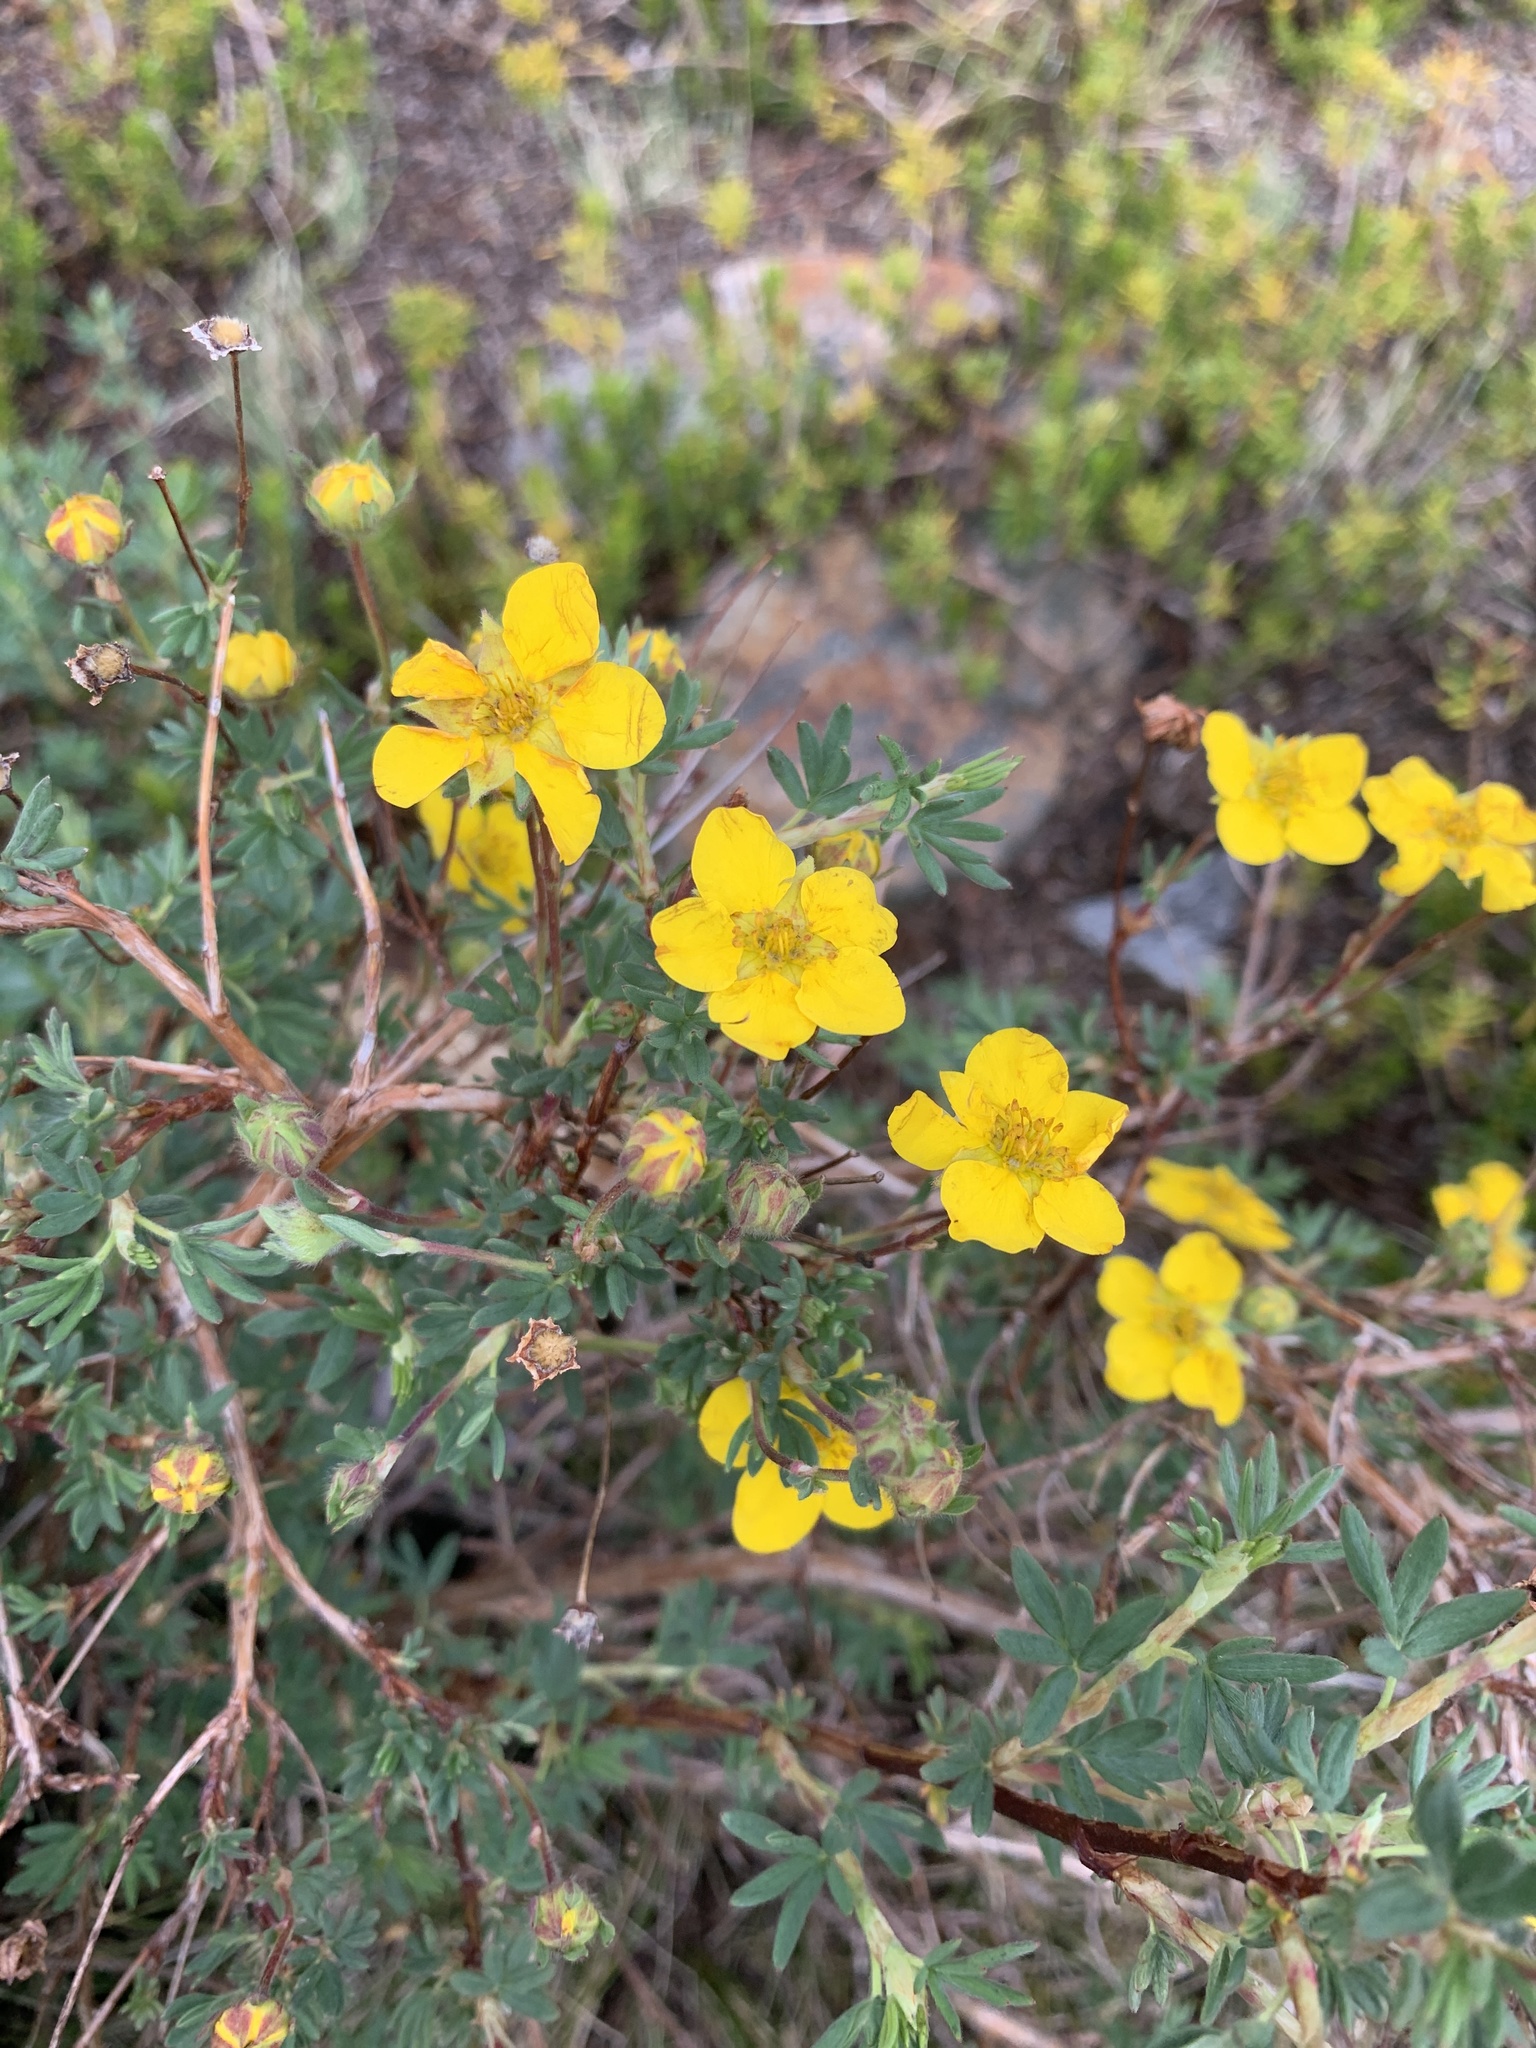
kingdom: Plantae
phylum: Tracheophyta
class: Magnoliopsida
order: Rosales
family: Rosaceae
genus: Dasiphora
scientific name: Dasiphora fruticosa
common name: Shrubby cinquefoil
